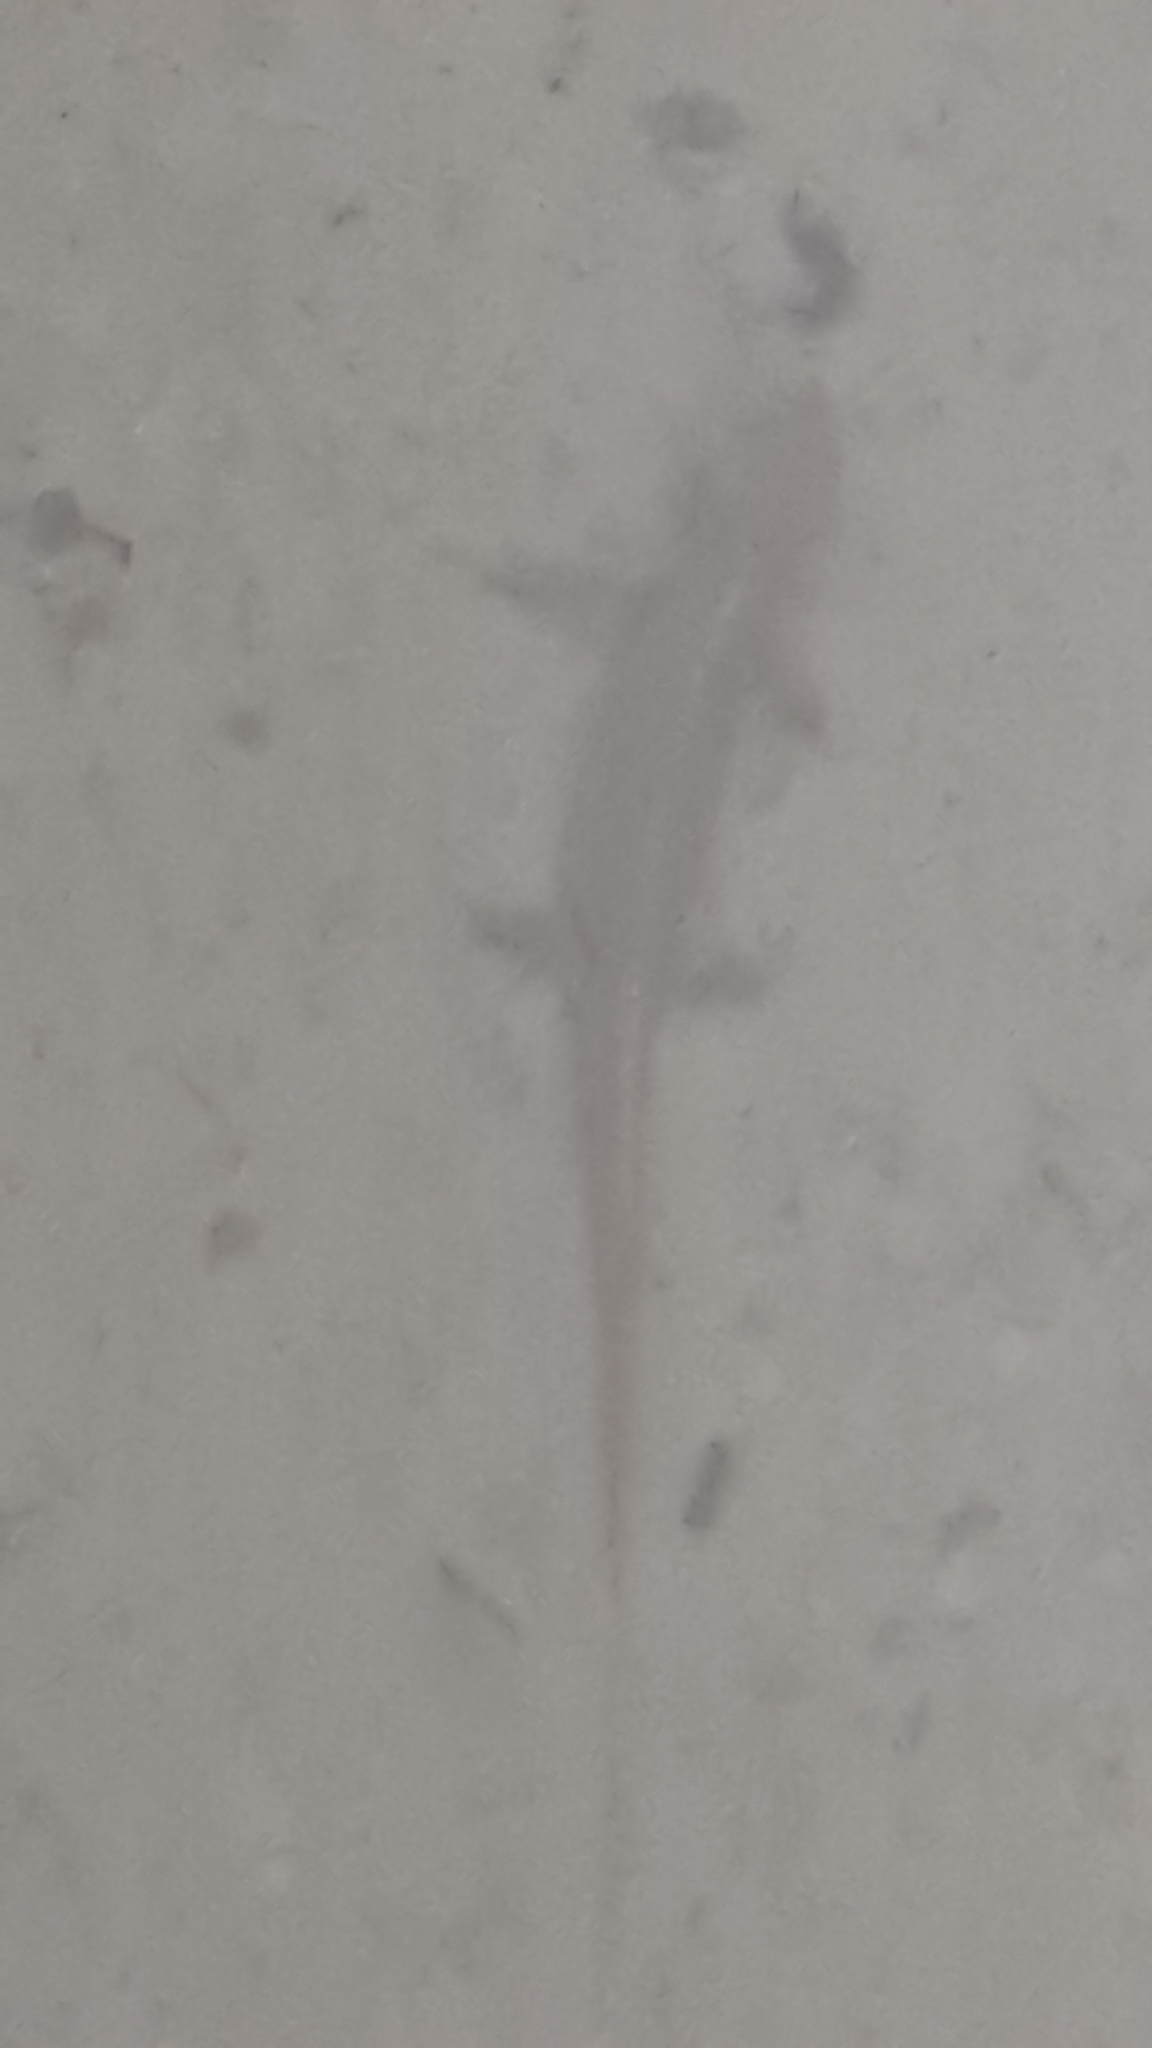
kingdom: Animalia
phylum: Chordata
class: Amphibia
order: Caudata
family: Salamandridae
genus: Calotriton
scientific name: Calotriton asper
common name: Pyrenean brook salamander
